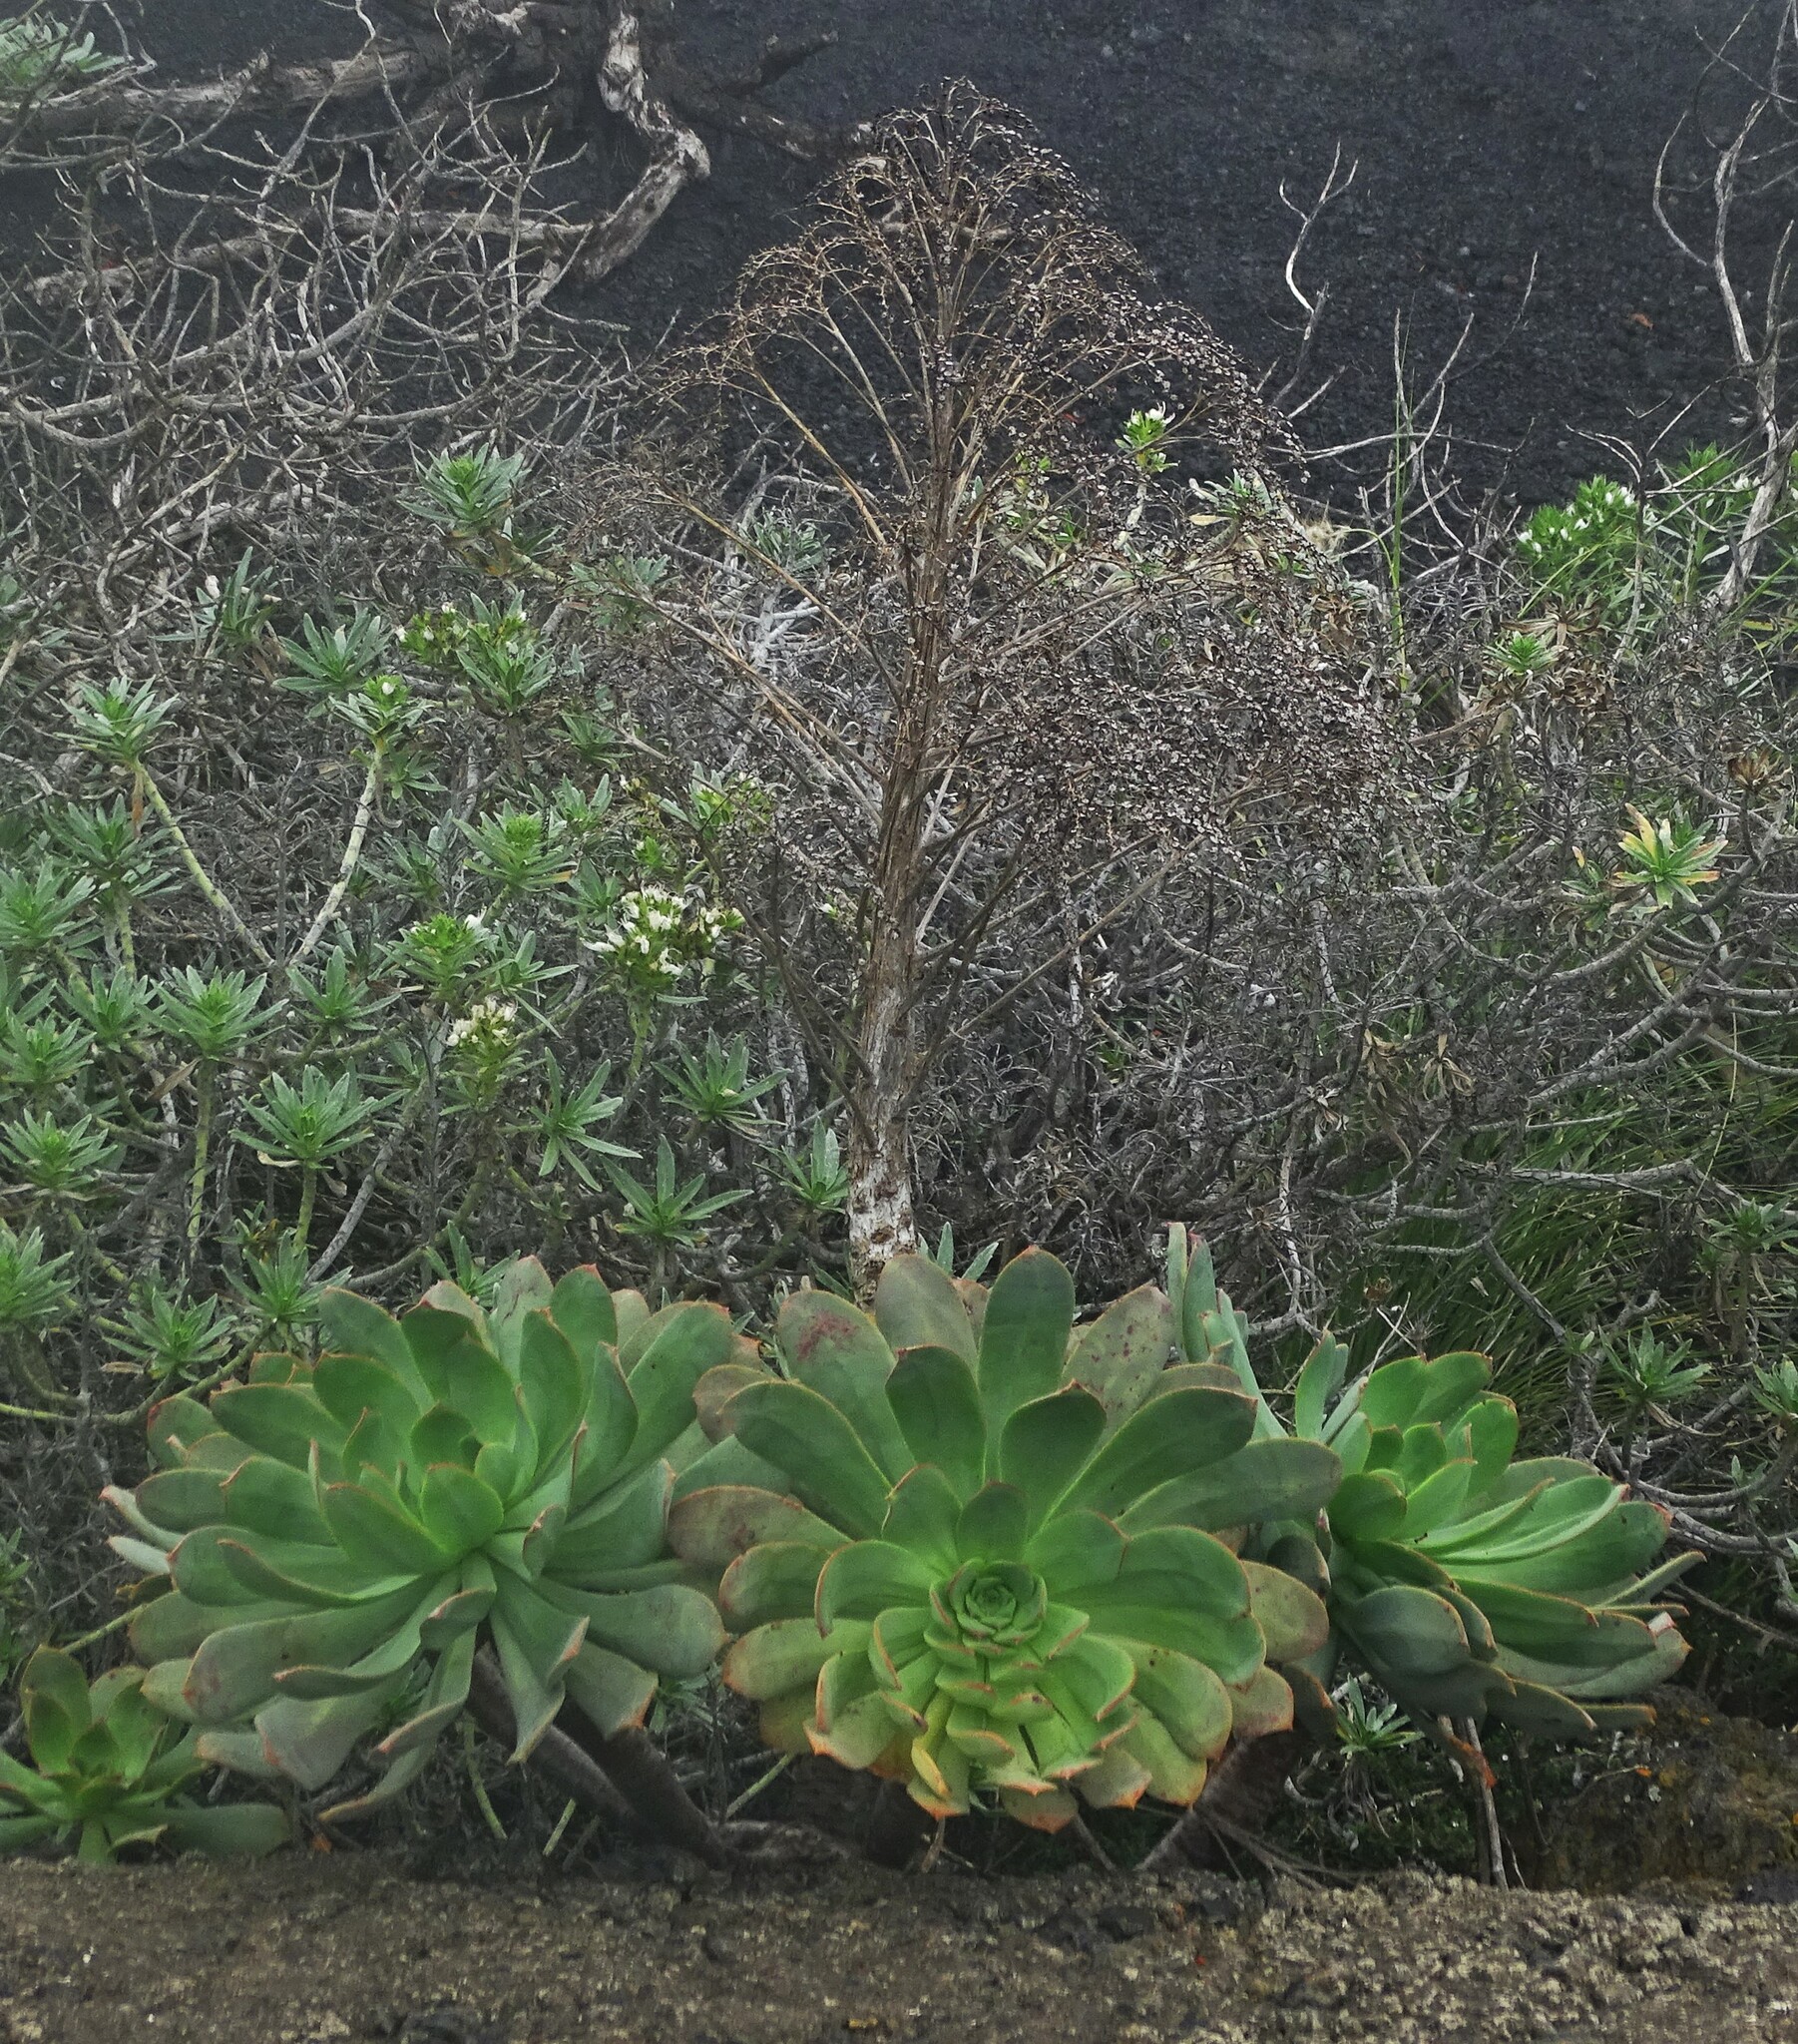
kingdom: Plantae
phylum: Tracheophyta
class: Magnoliopsida
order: Saxifragales
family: Crassulaceae
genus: Aeonium
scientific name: Aeonium davidbramwellii
